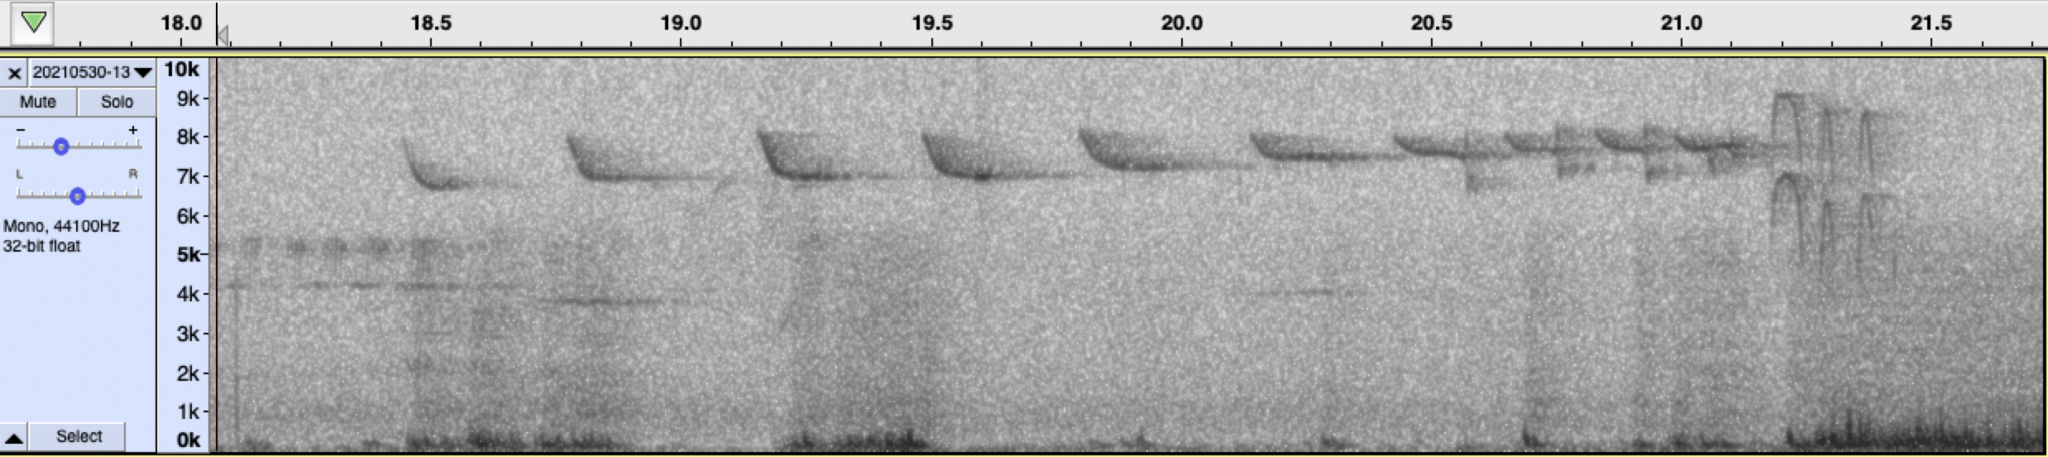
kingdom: Animalia
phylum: Chordata
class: Aves
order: Passeriformes
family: Regulidae
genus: Regulus
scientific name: Regulus satrapa
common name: Golden-crowned kinglet
